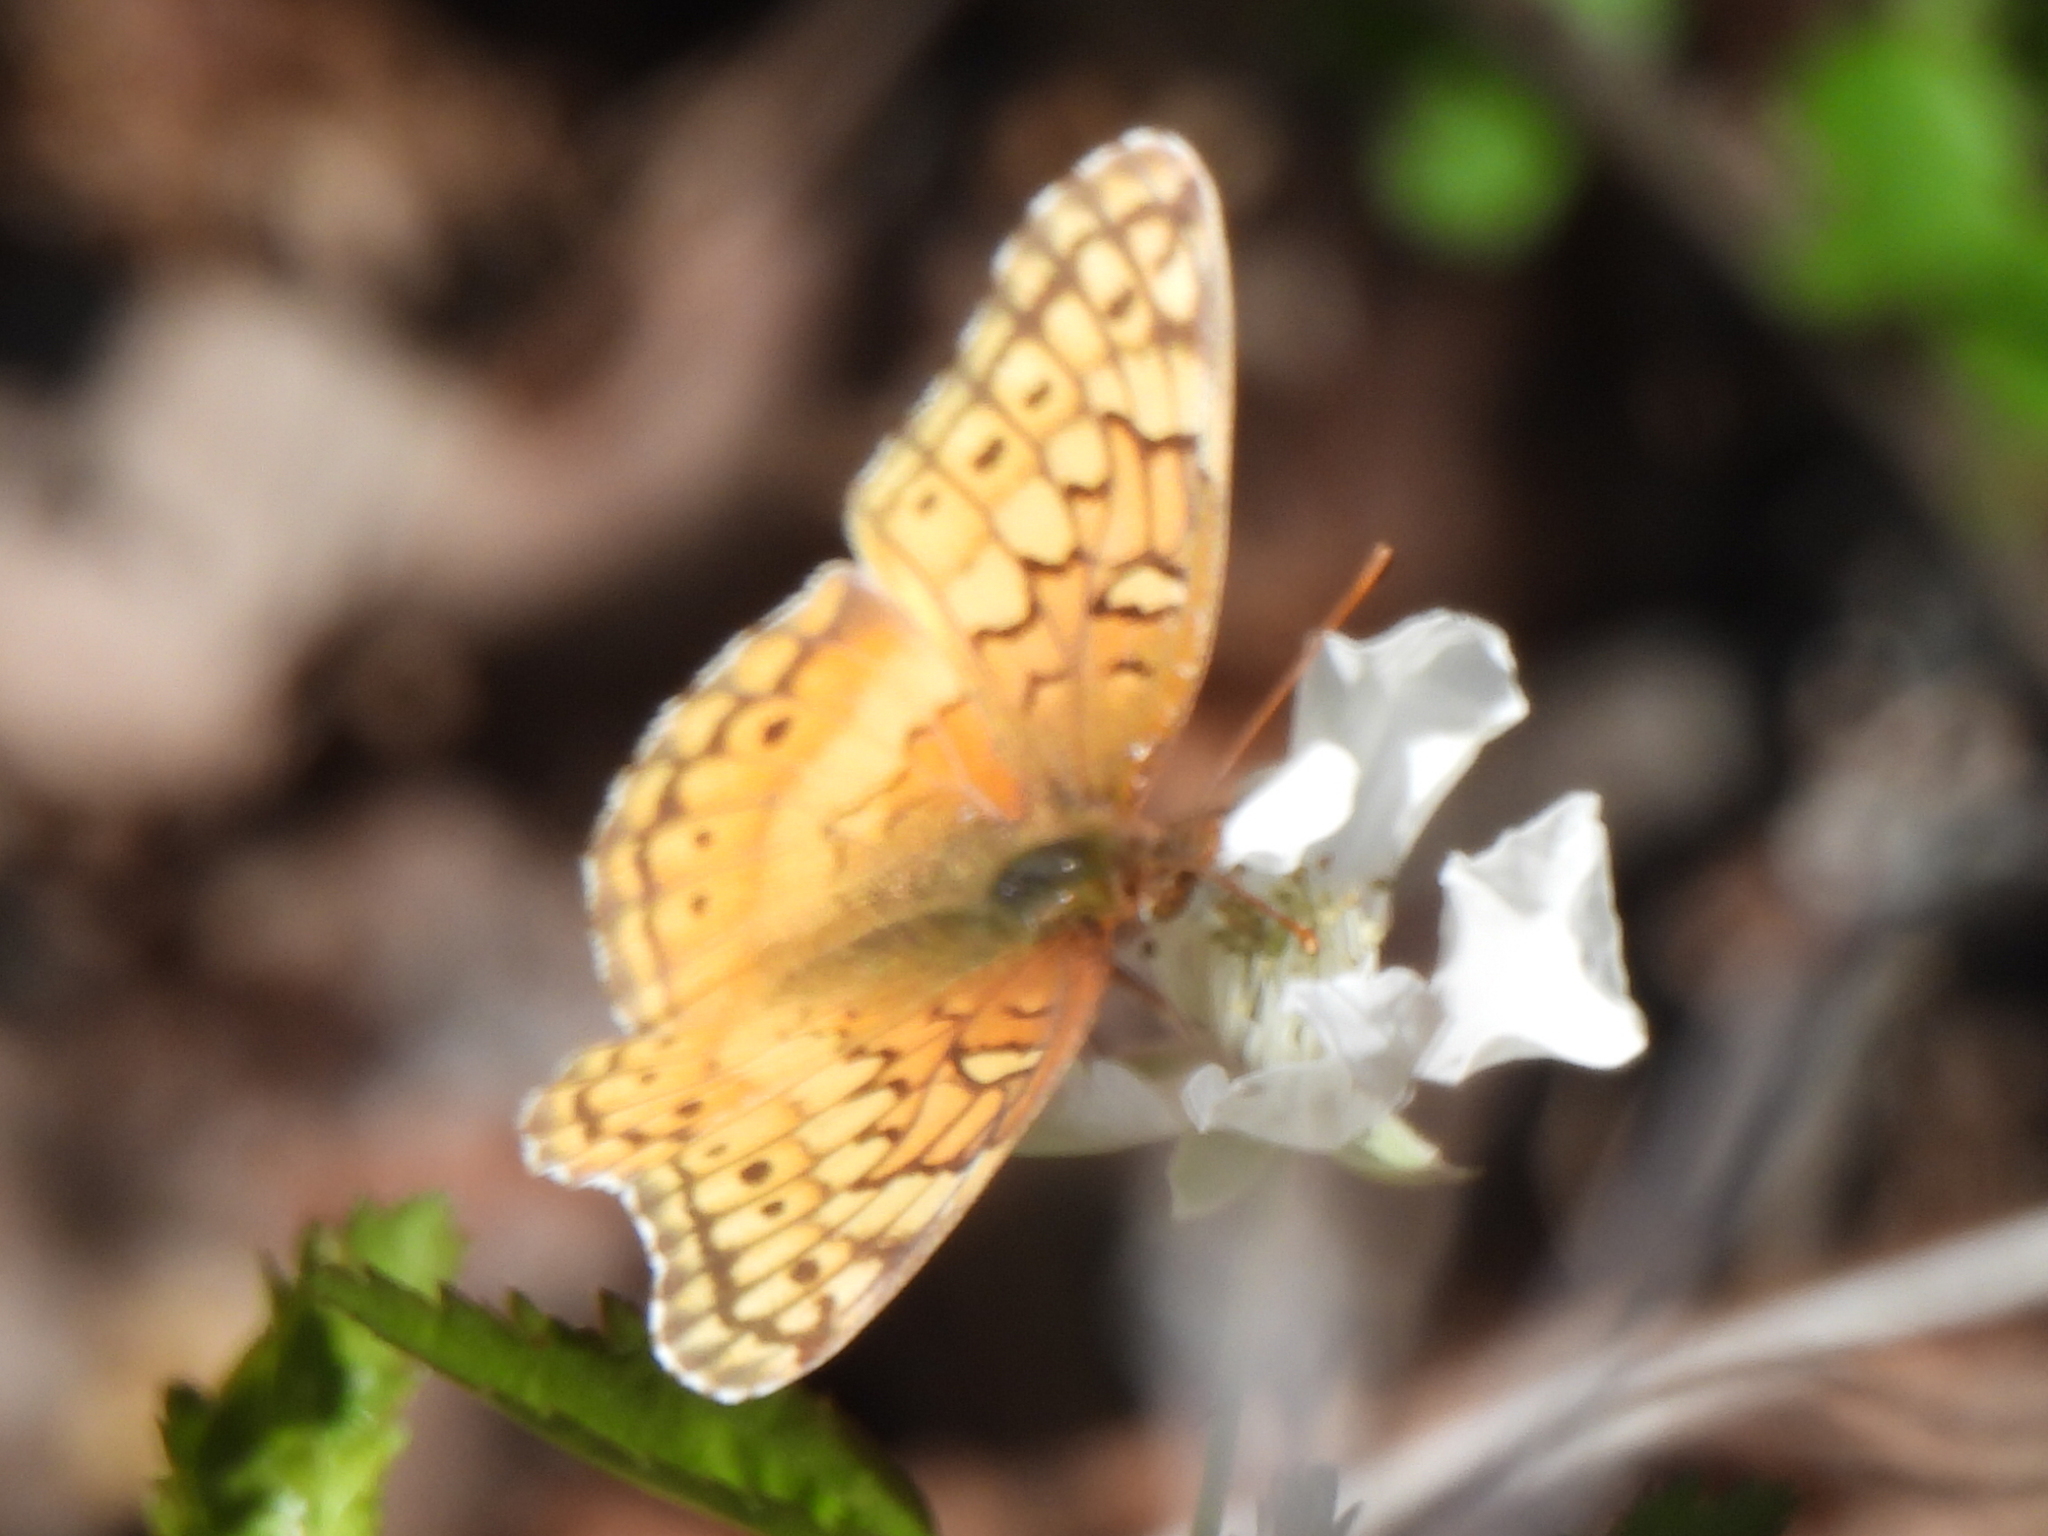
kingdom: Animalia
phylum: Arthropoda
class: Insecta
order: Lepidoptera
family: Nymphalidae
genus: Euptoieta
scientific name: Euptoieta claudia
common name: Variegated fritillary
